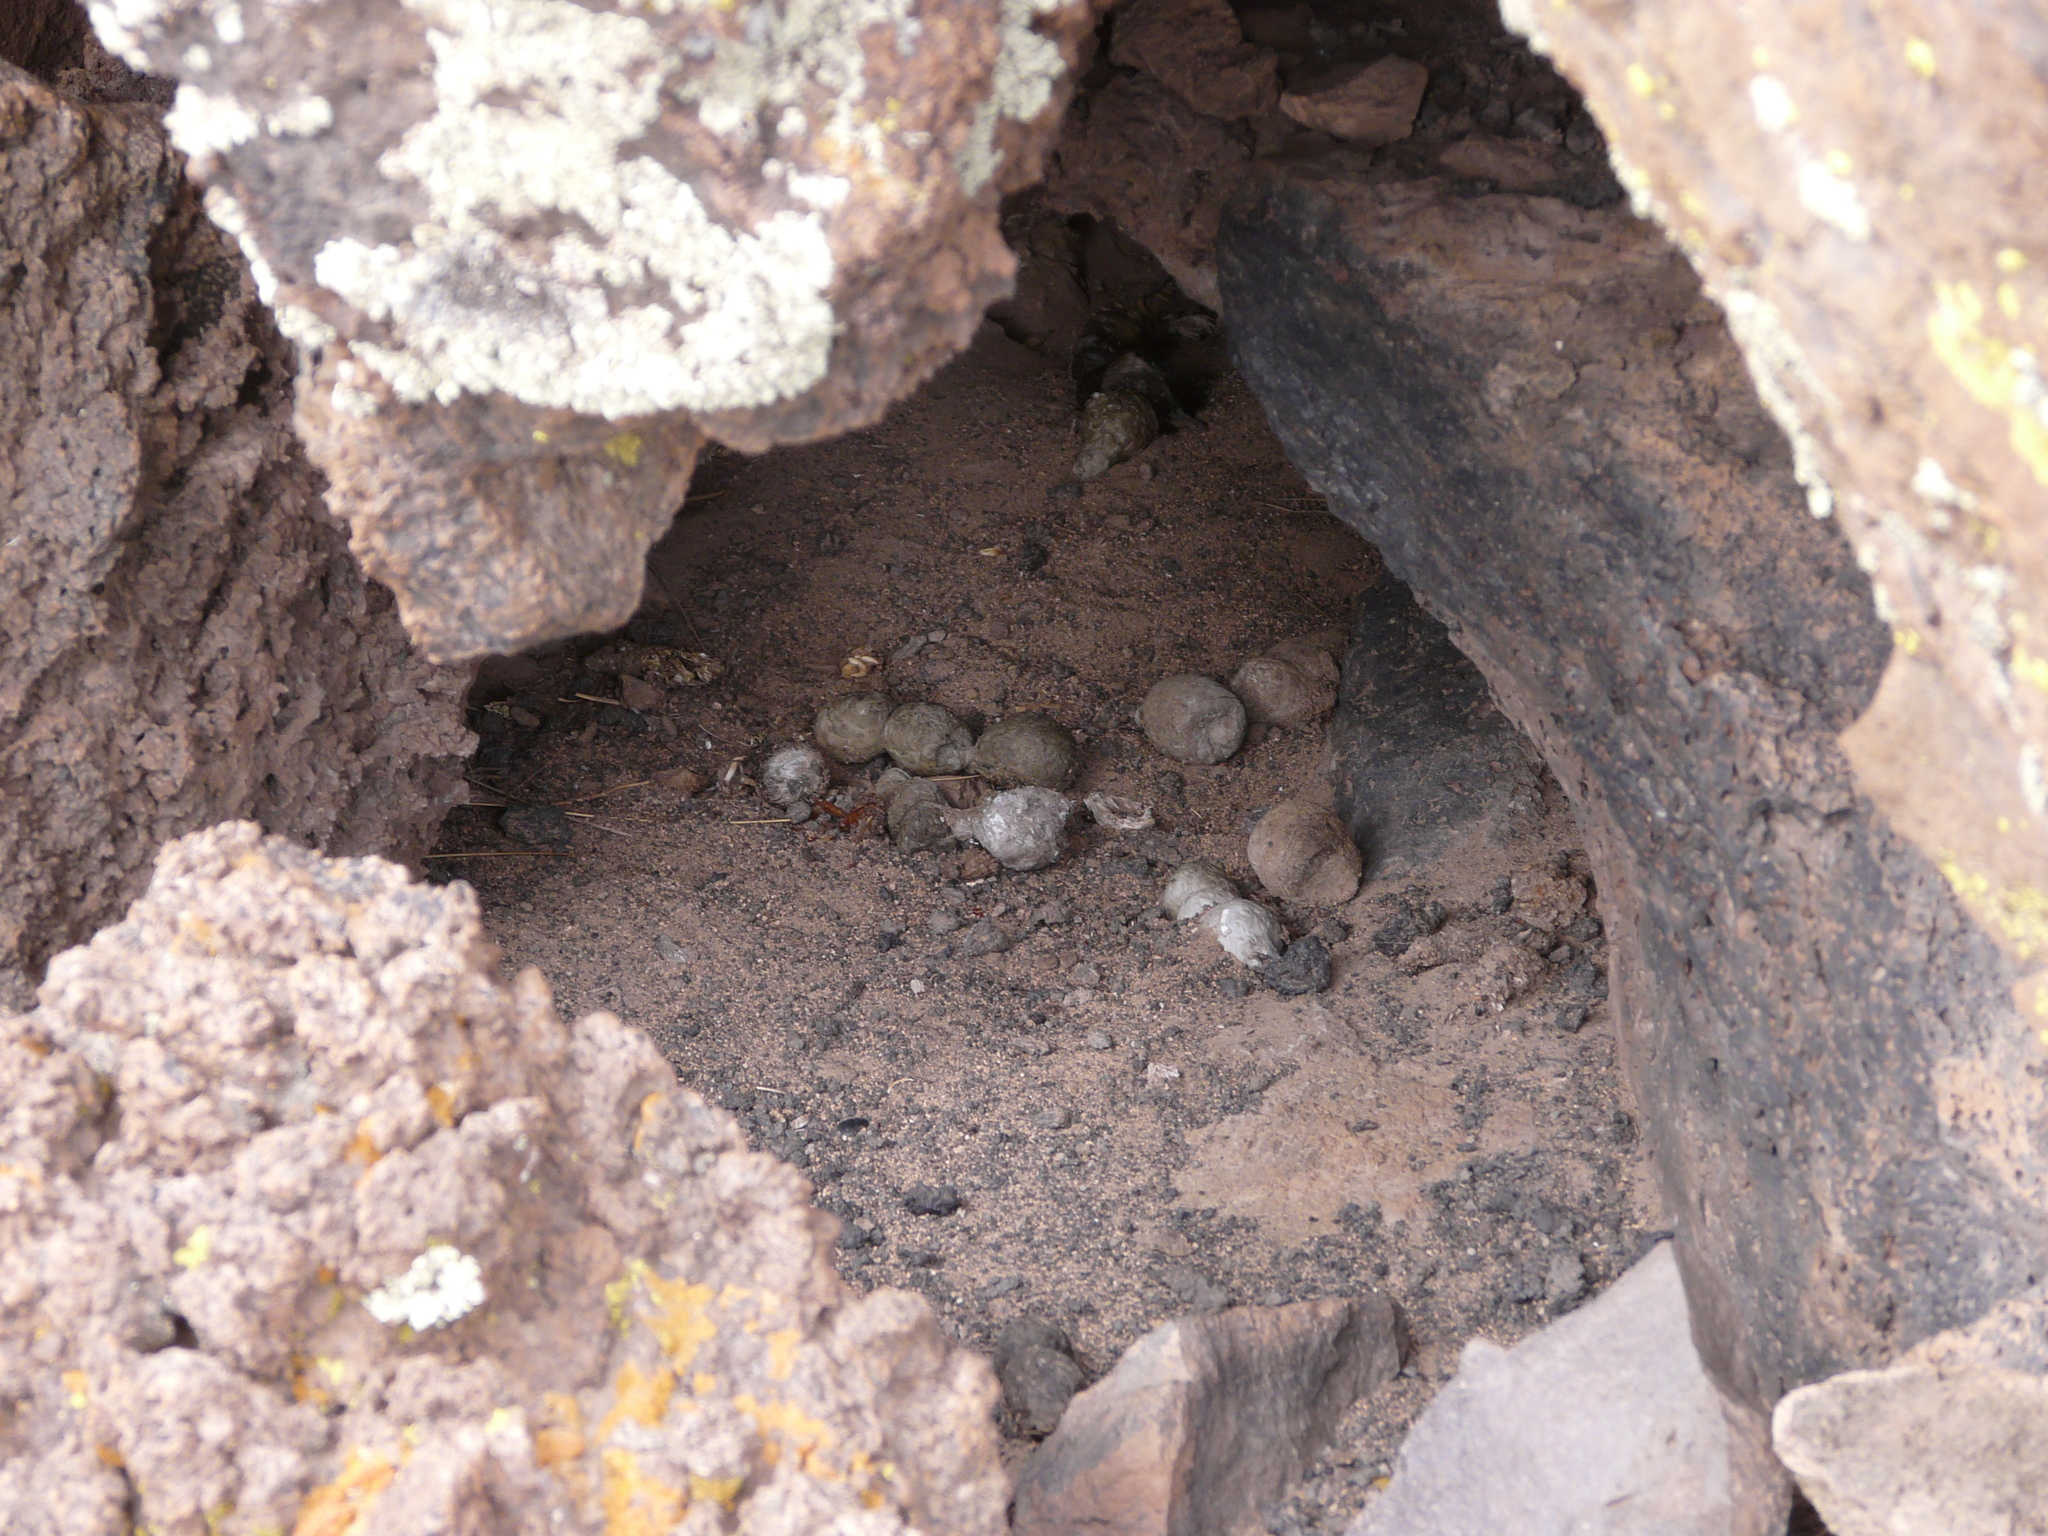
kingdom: Animalia
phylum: Chordata
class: Mammalia
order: Carnivora
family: Felidae
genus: Puma
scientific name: Puma concolor
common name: Puma
